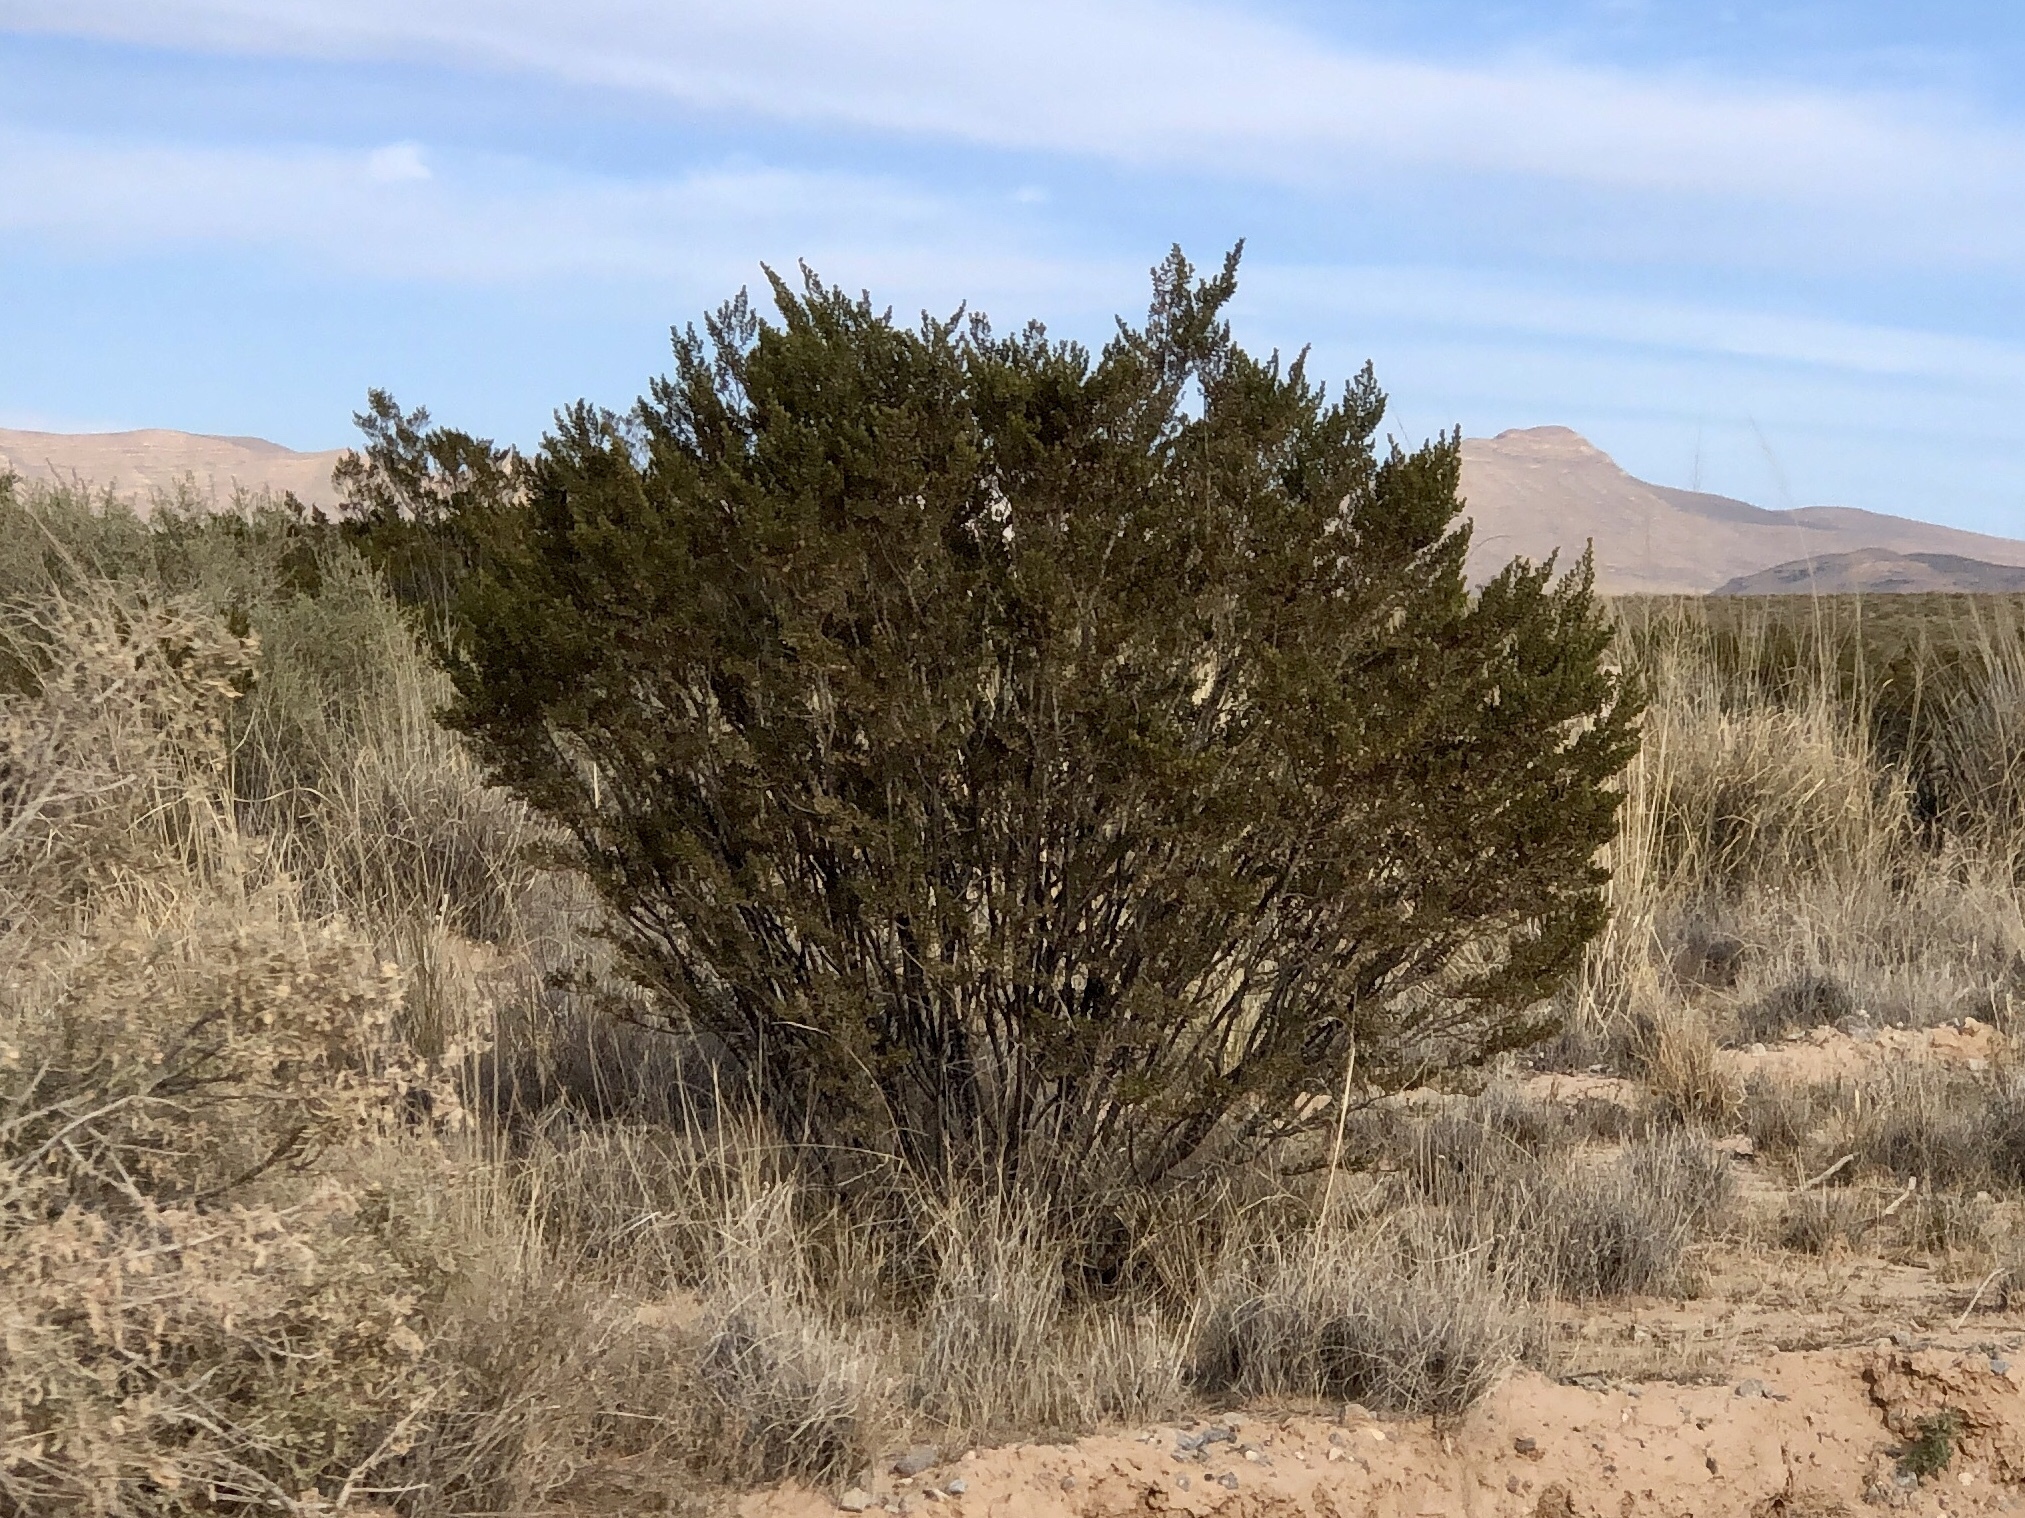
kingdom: Plantae
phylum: Tracheophyta
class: Magnoliopsida
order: Zygophyllales
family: Zygophyllaceae
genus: Larrea
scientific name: Larrea tridentata
